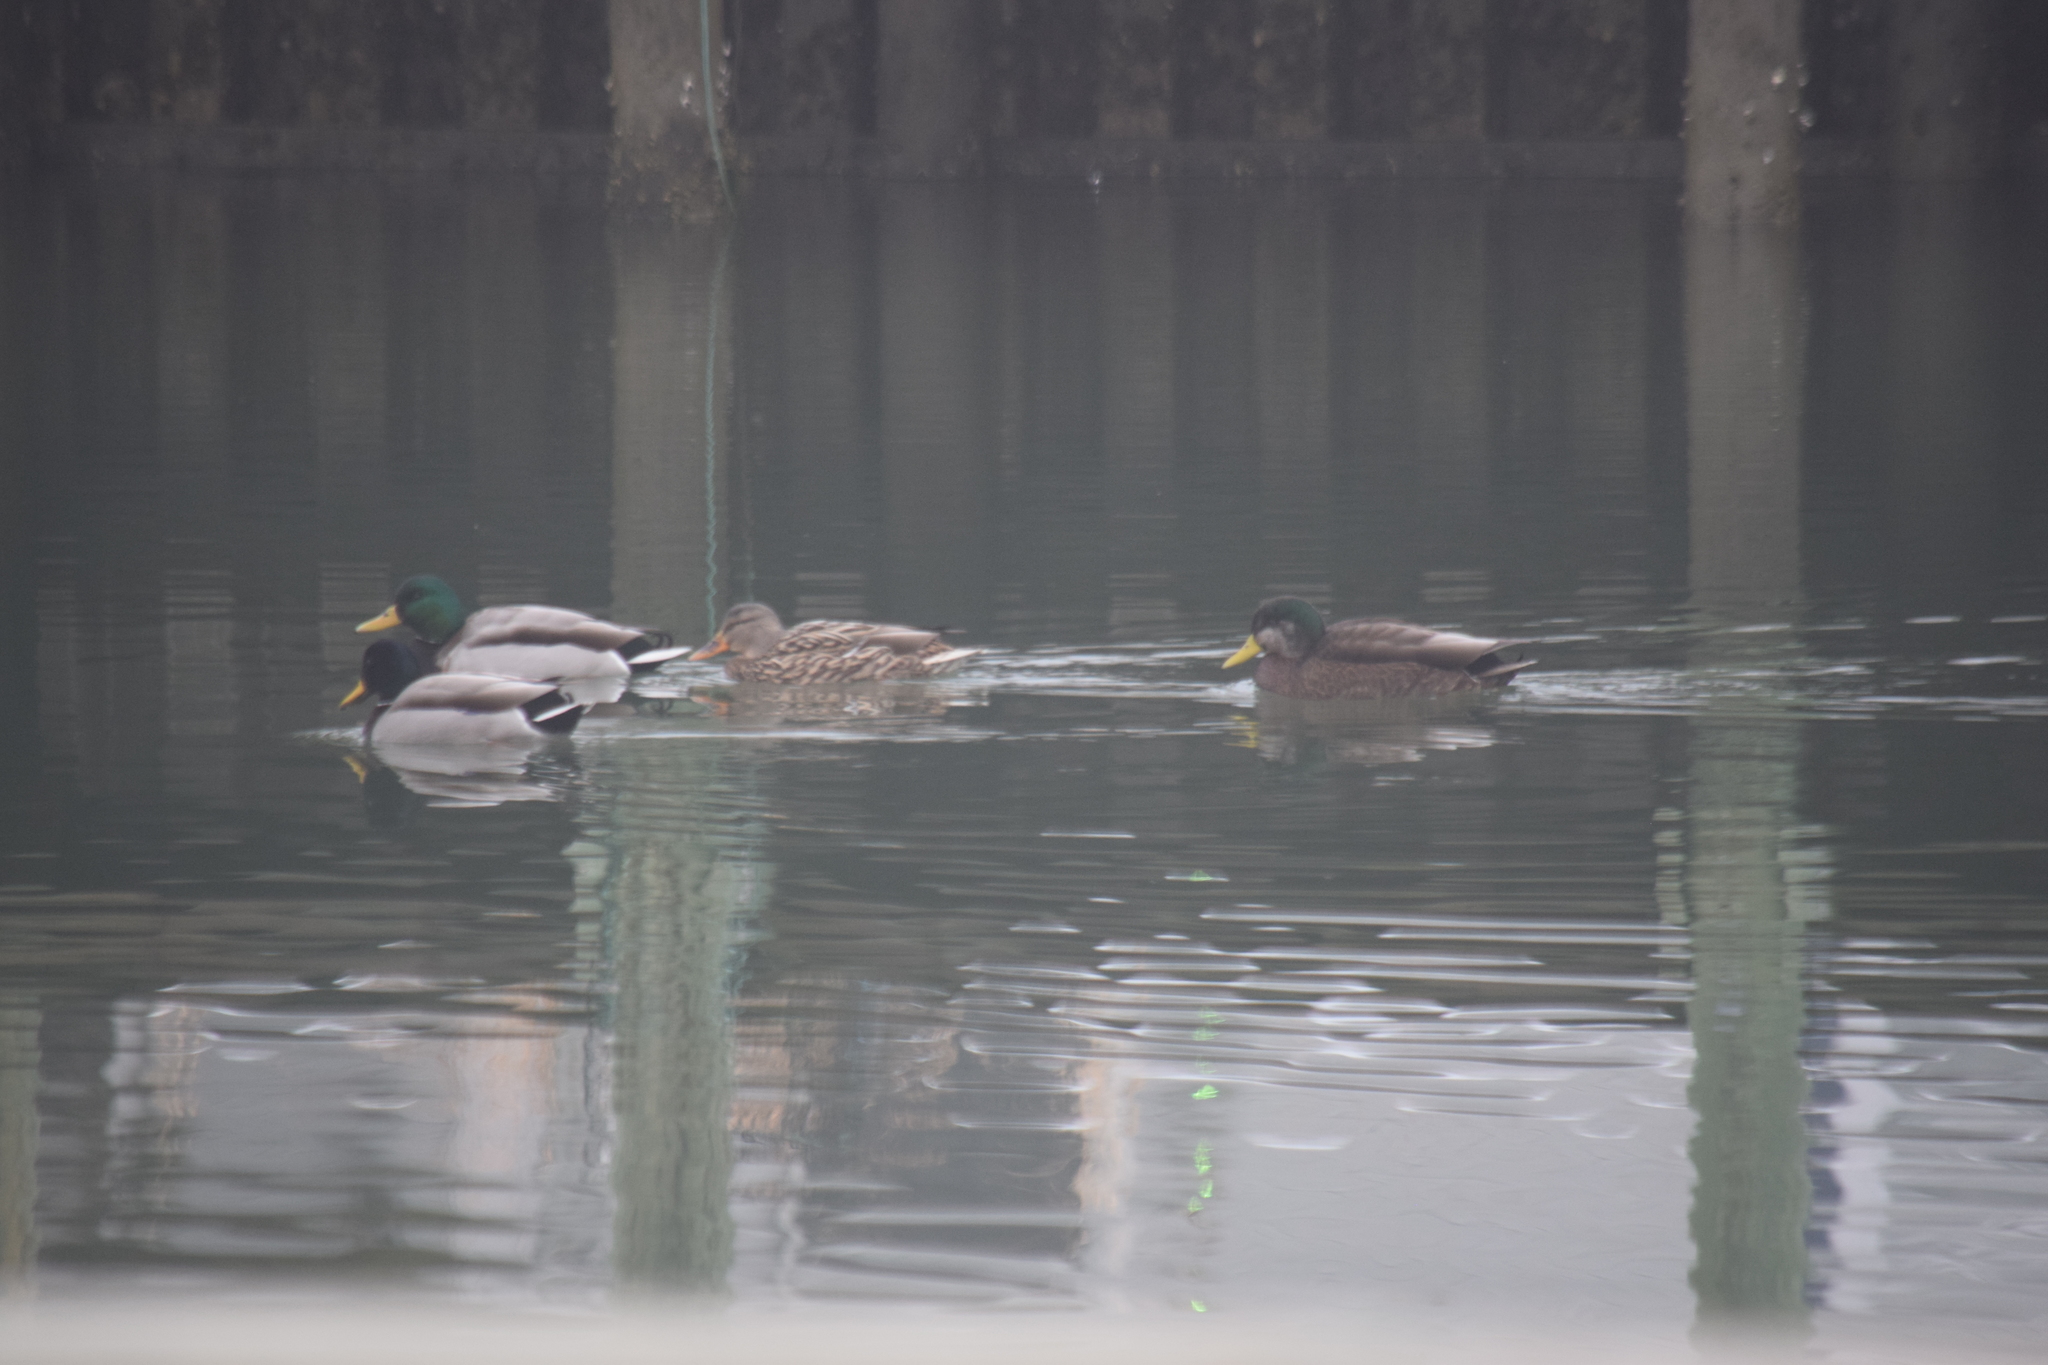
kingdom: Animalia
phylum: Chordata
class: Aves
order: Anseriformes
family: Anatidae
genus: Anas
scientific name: Anas platyrhynchos
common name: Mallard
